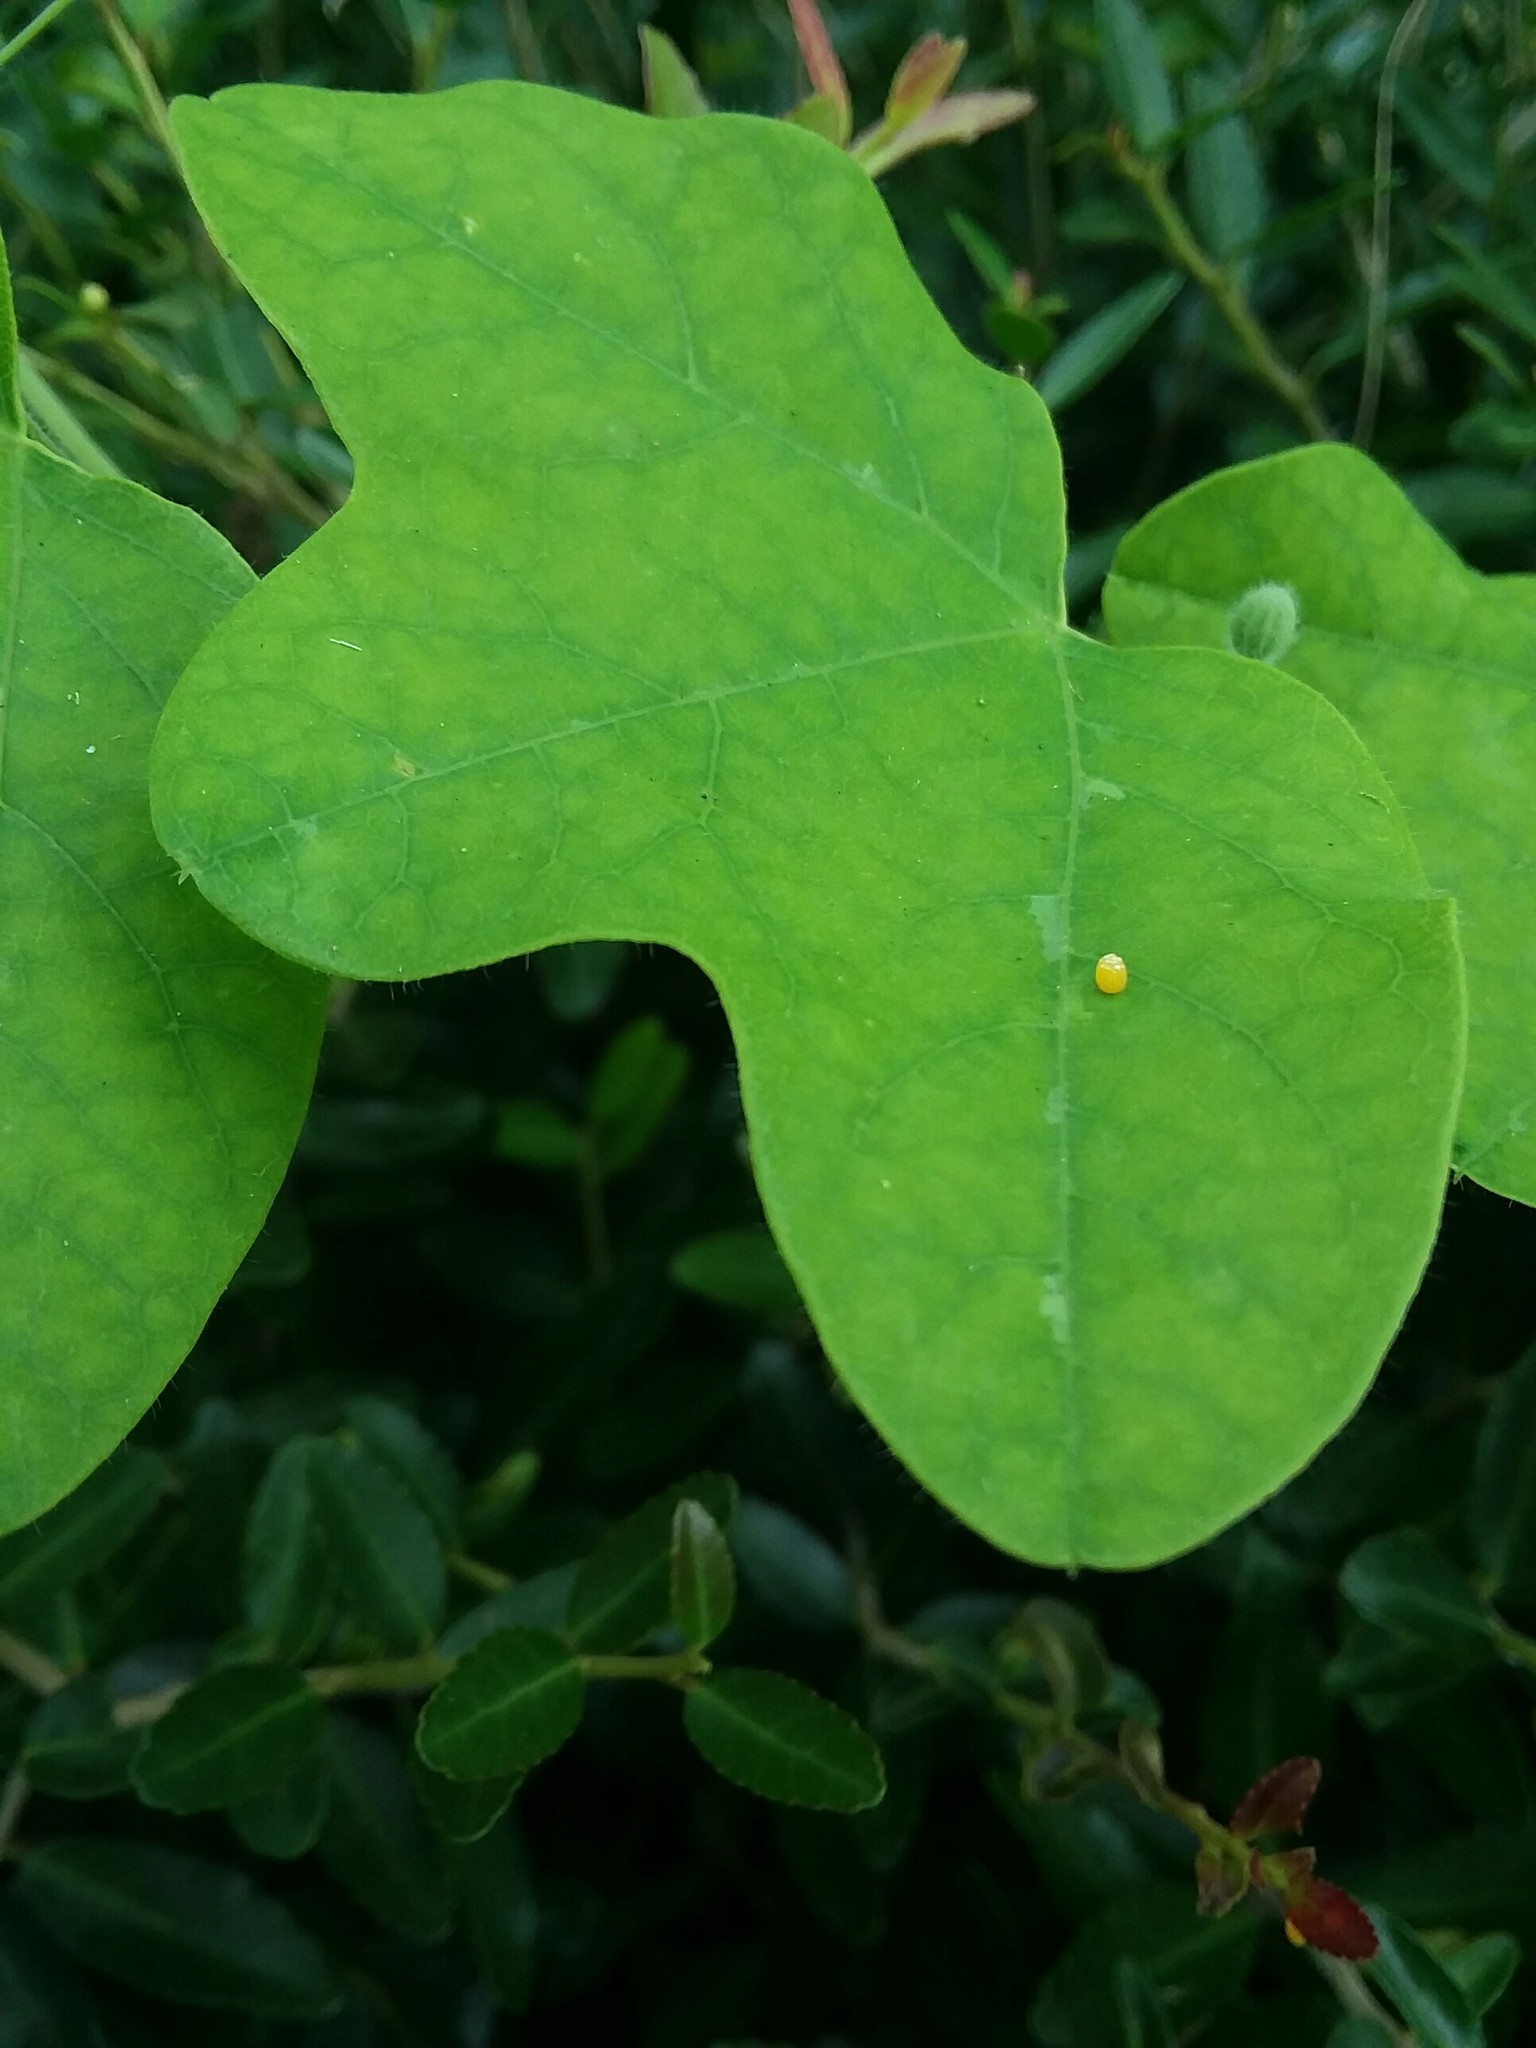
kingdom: Animalia
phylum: Arthropoda
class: Insecta
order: Lepidoptera
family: Nymphalidae
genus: Dione
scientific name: Dione vanillae
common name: Gulf fritillary
